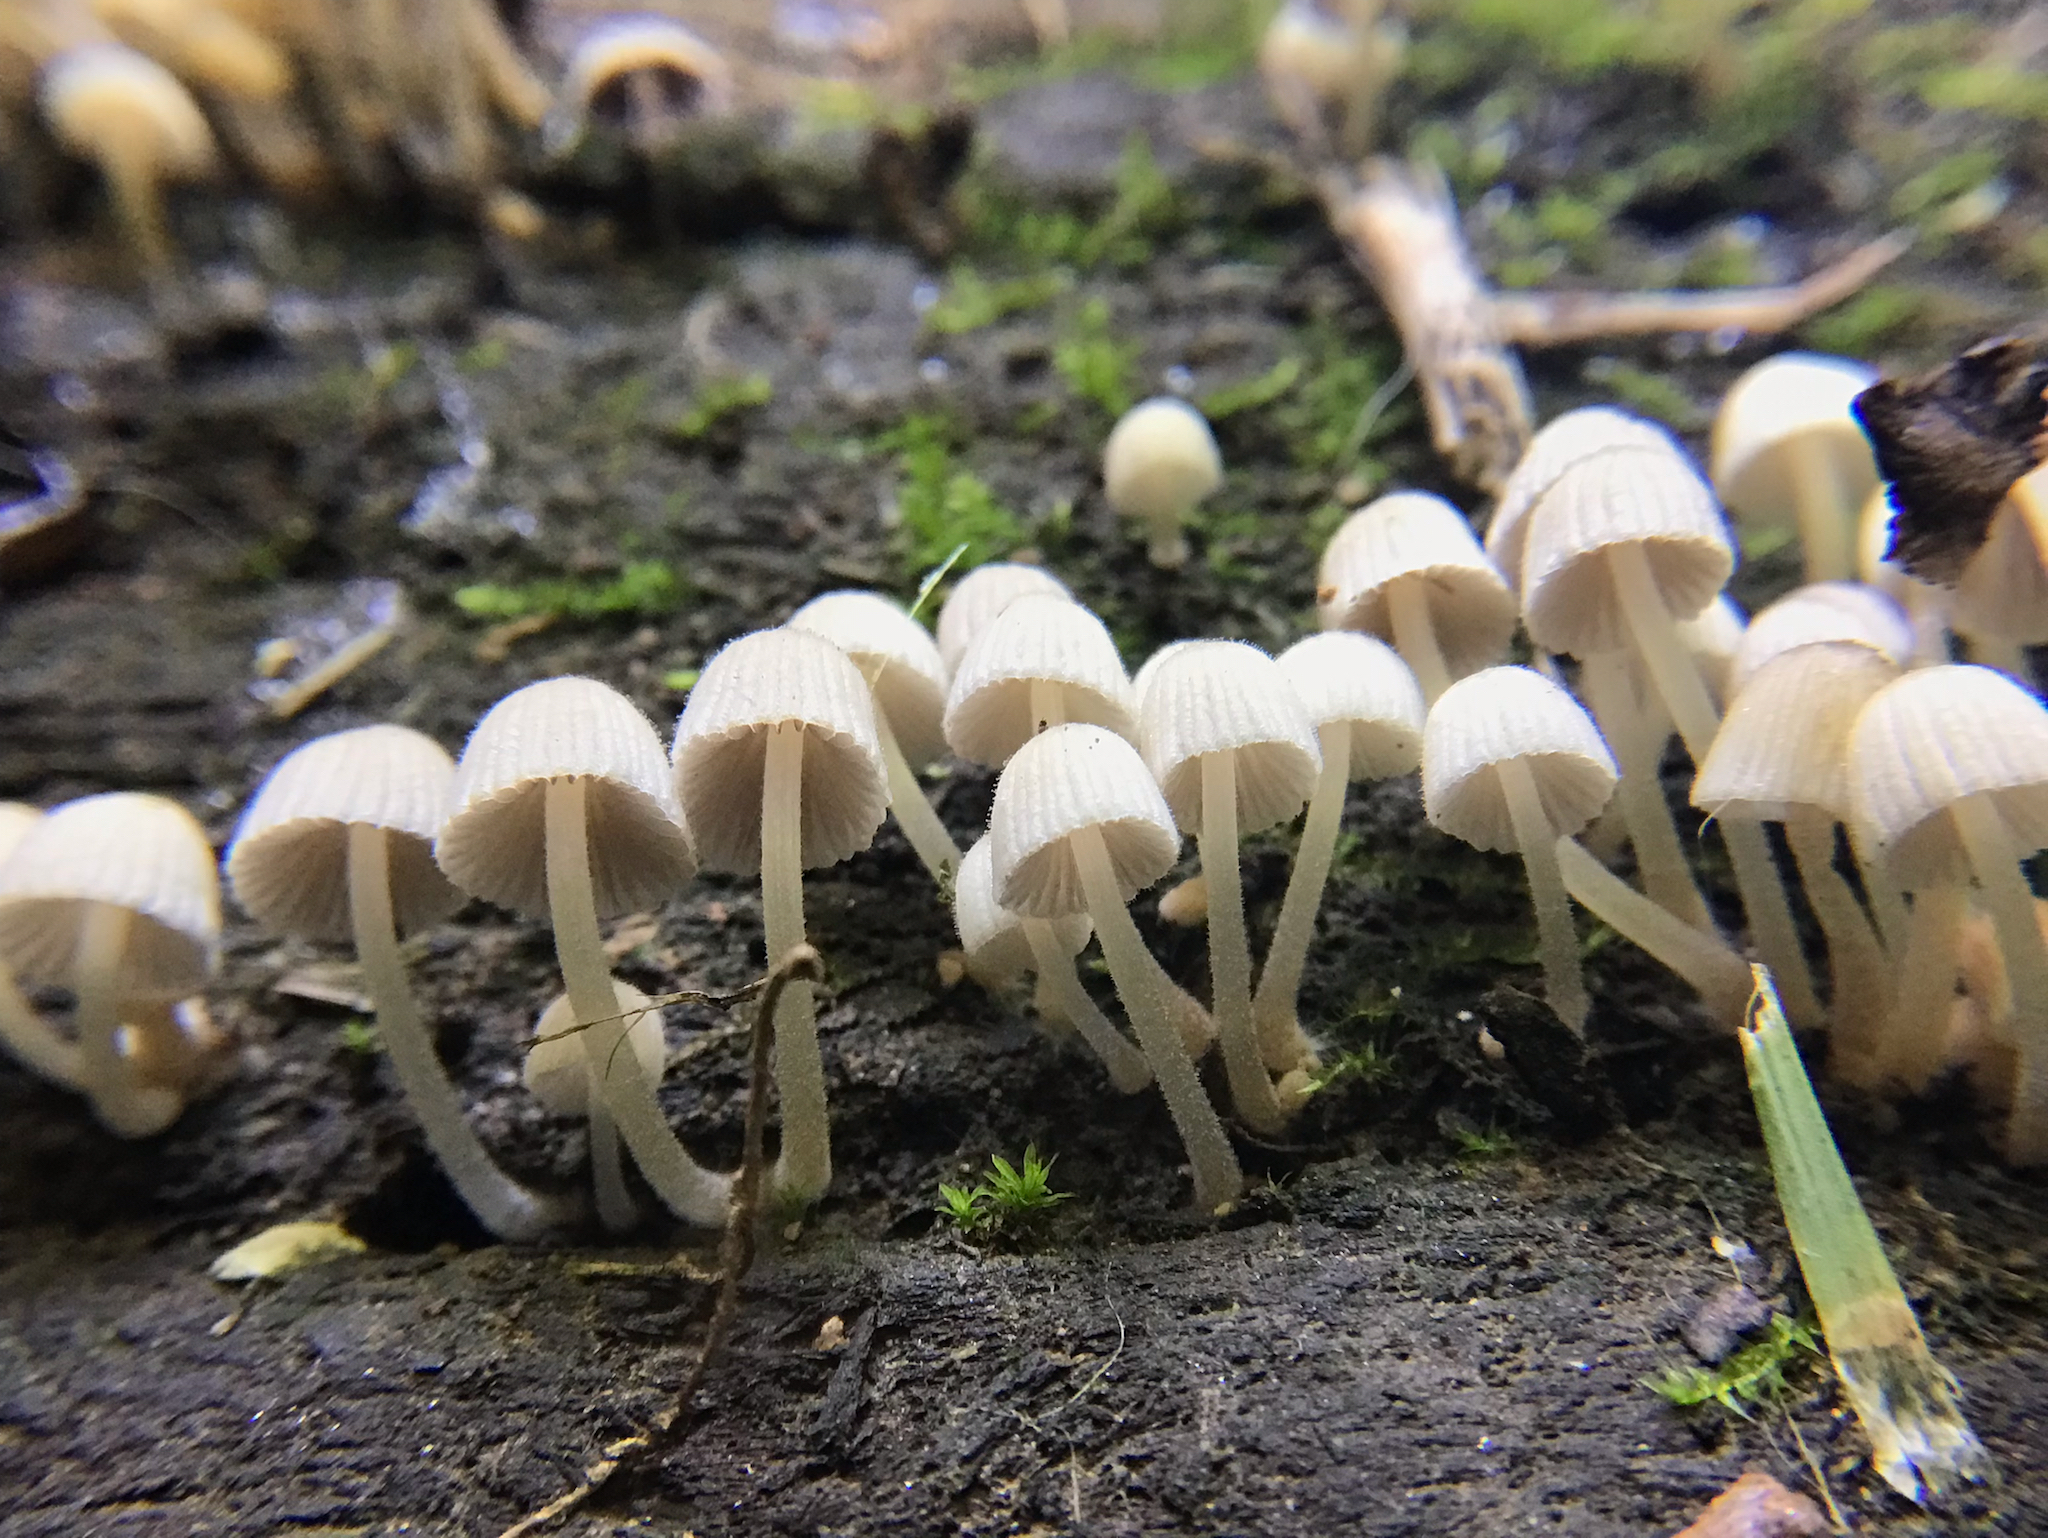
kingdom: Fungi
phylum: Basidiomycota
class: Agaricomycetes
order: Agaricales
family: Psathyrellaceae
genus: Coprinellus
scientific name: Coprinellus disseminatus
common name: Fairies' bonnets
